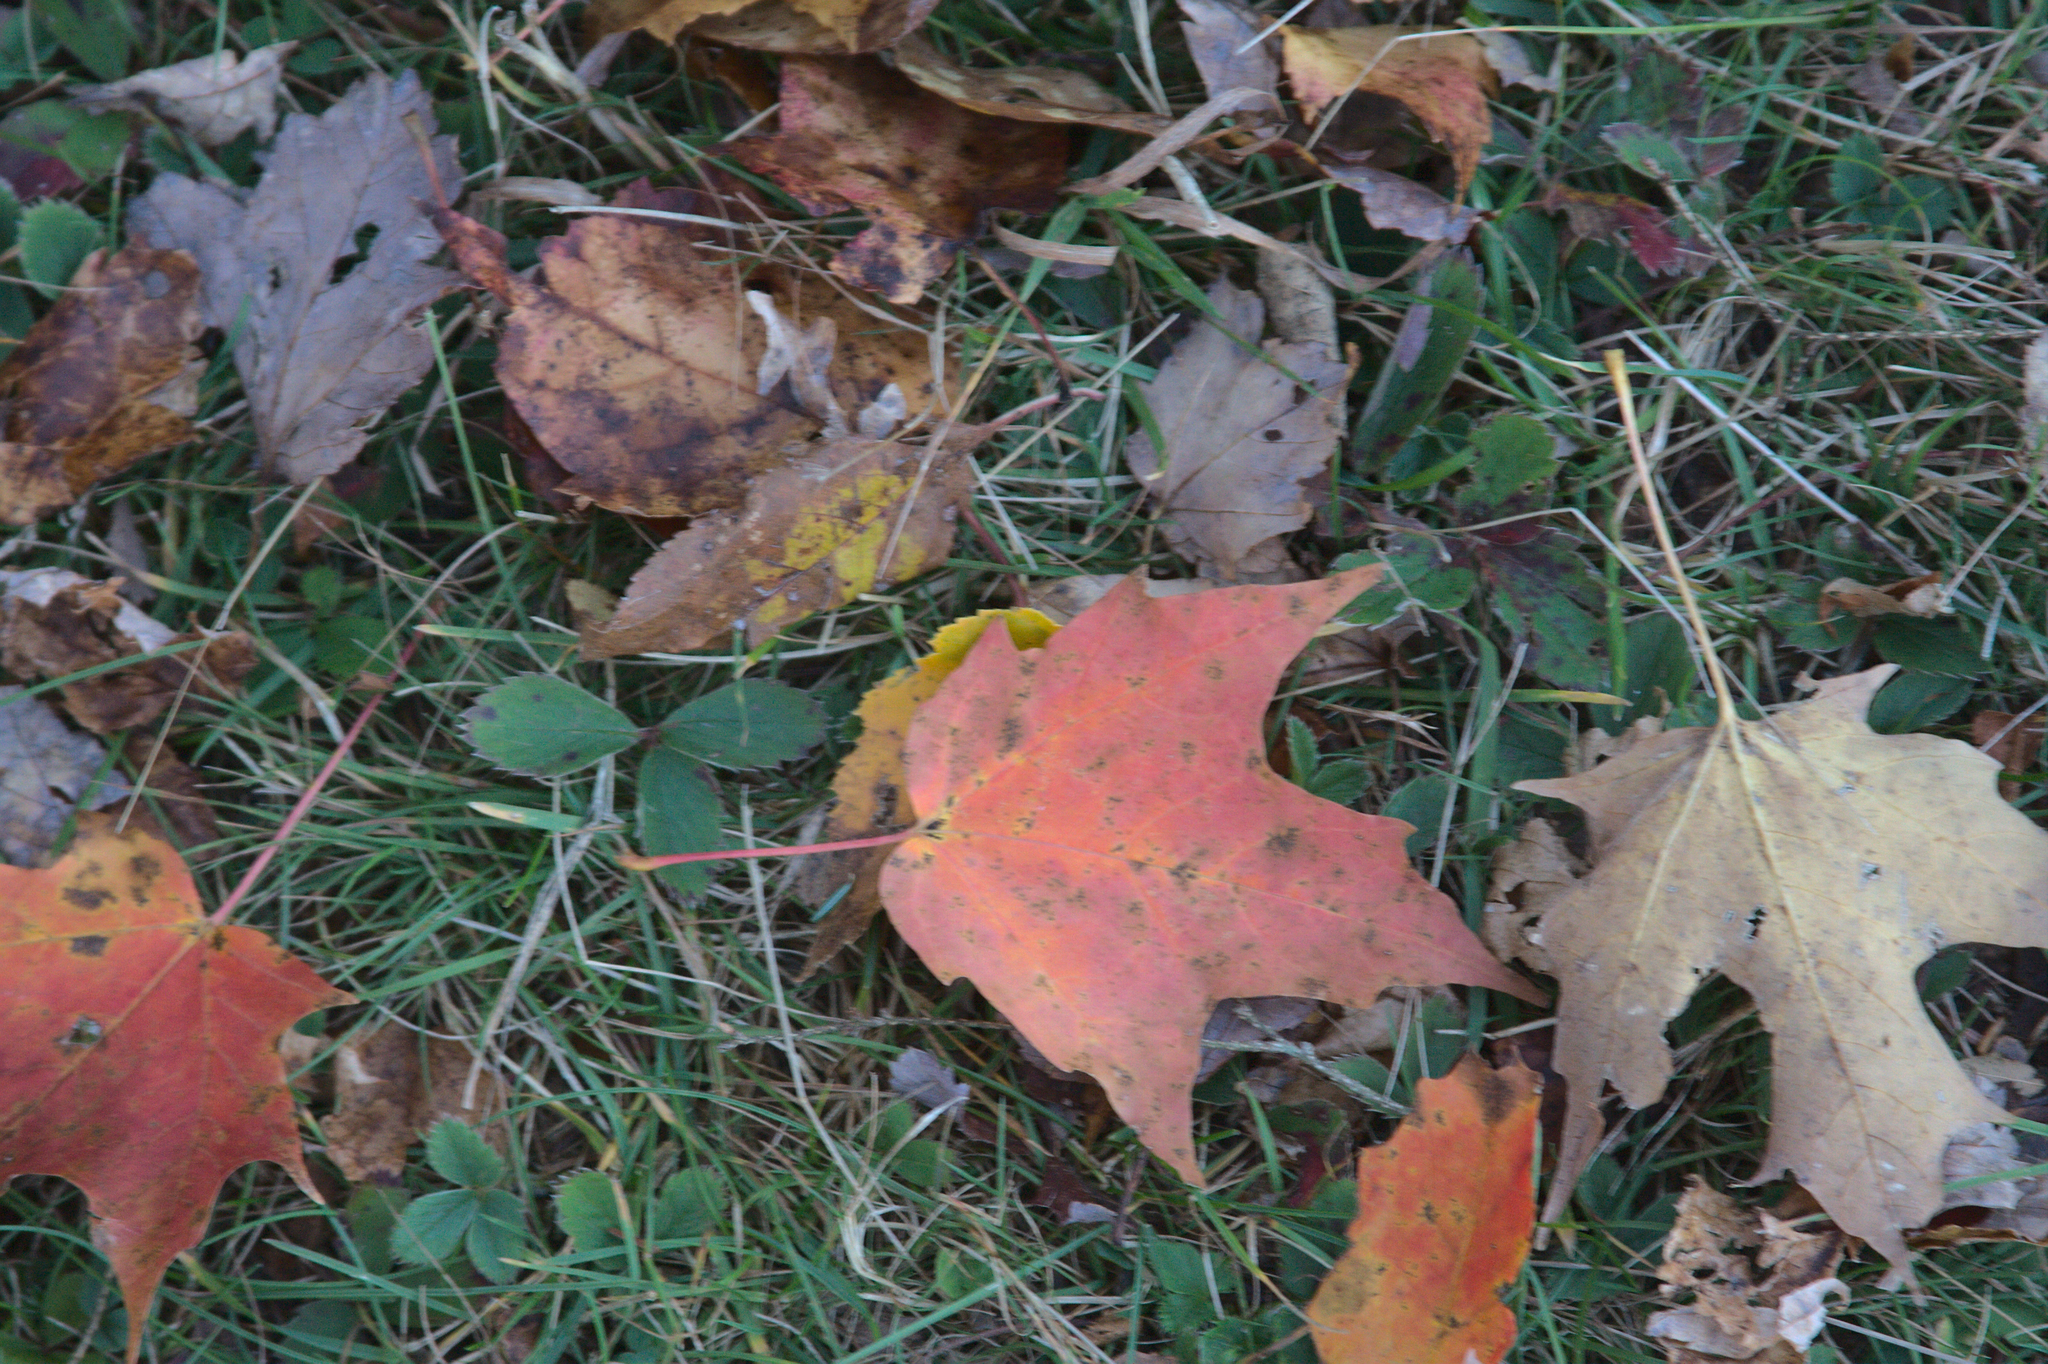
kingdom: Plantae
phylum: Tracheophyta
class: Magnoliopsida
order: Sapindales
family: Sapindaceae
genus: Acer
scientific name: Acer rubrum
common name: Red maple
